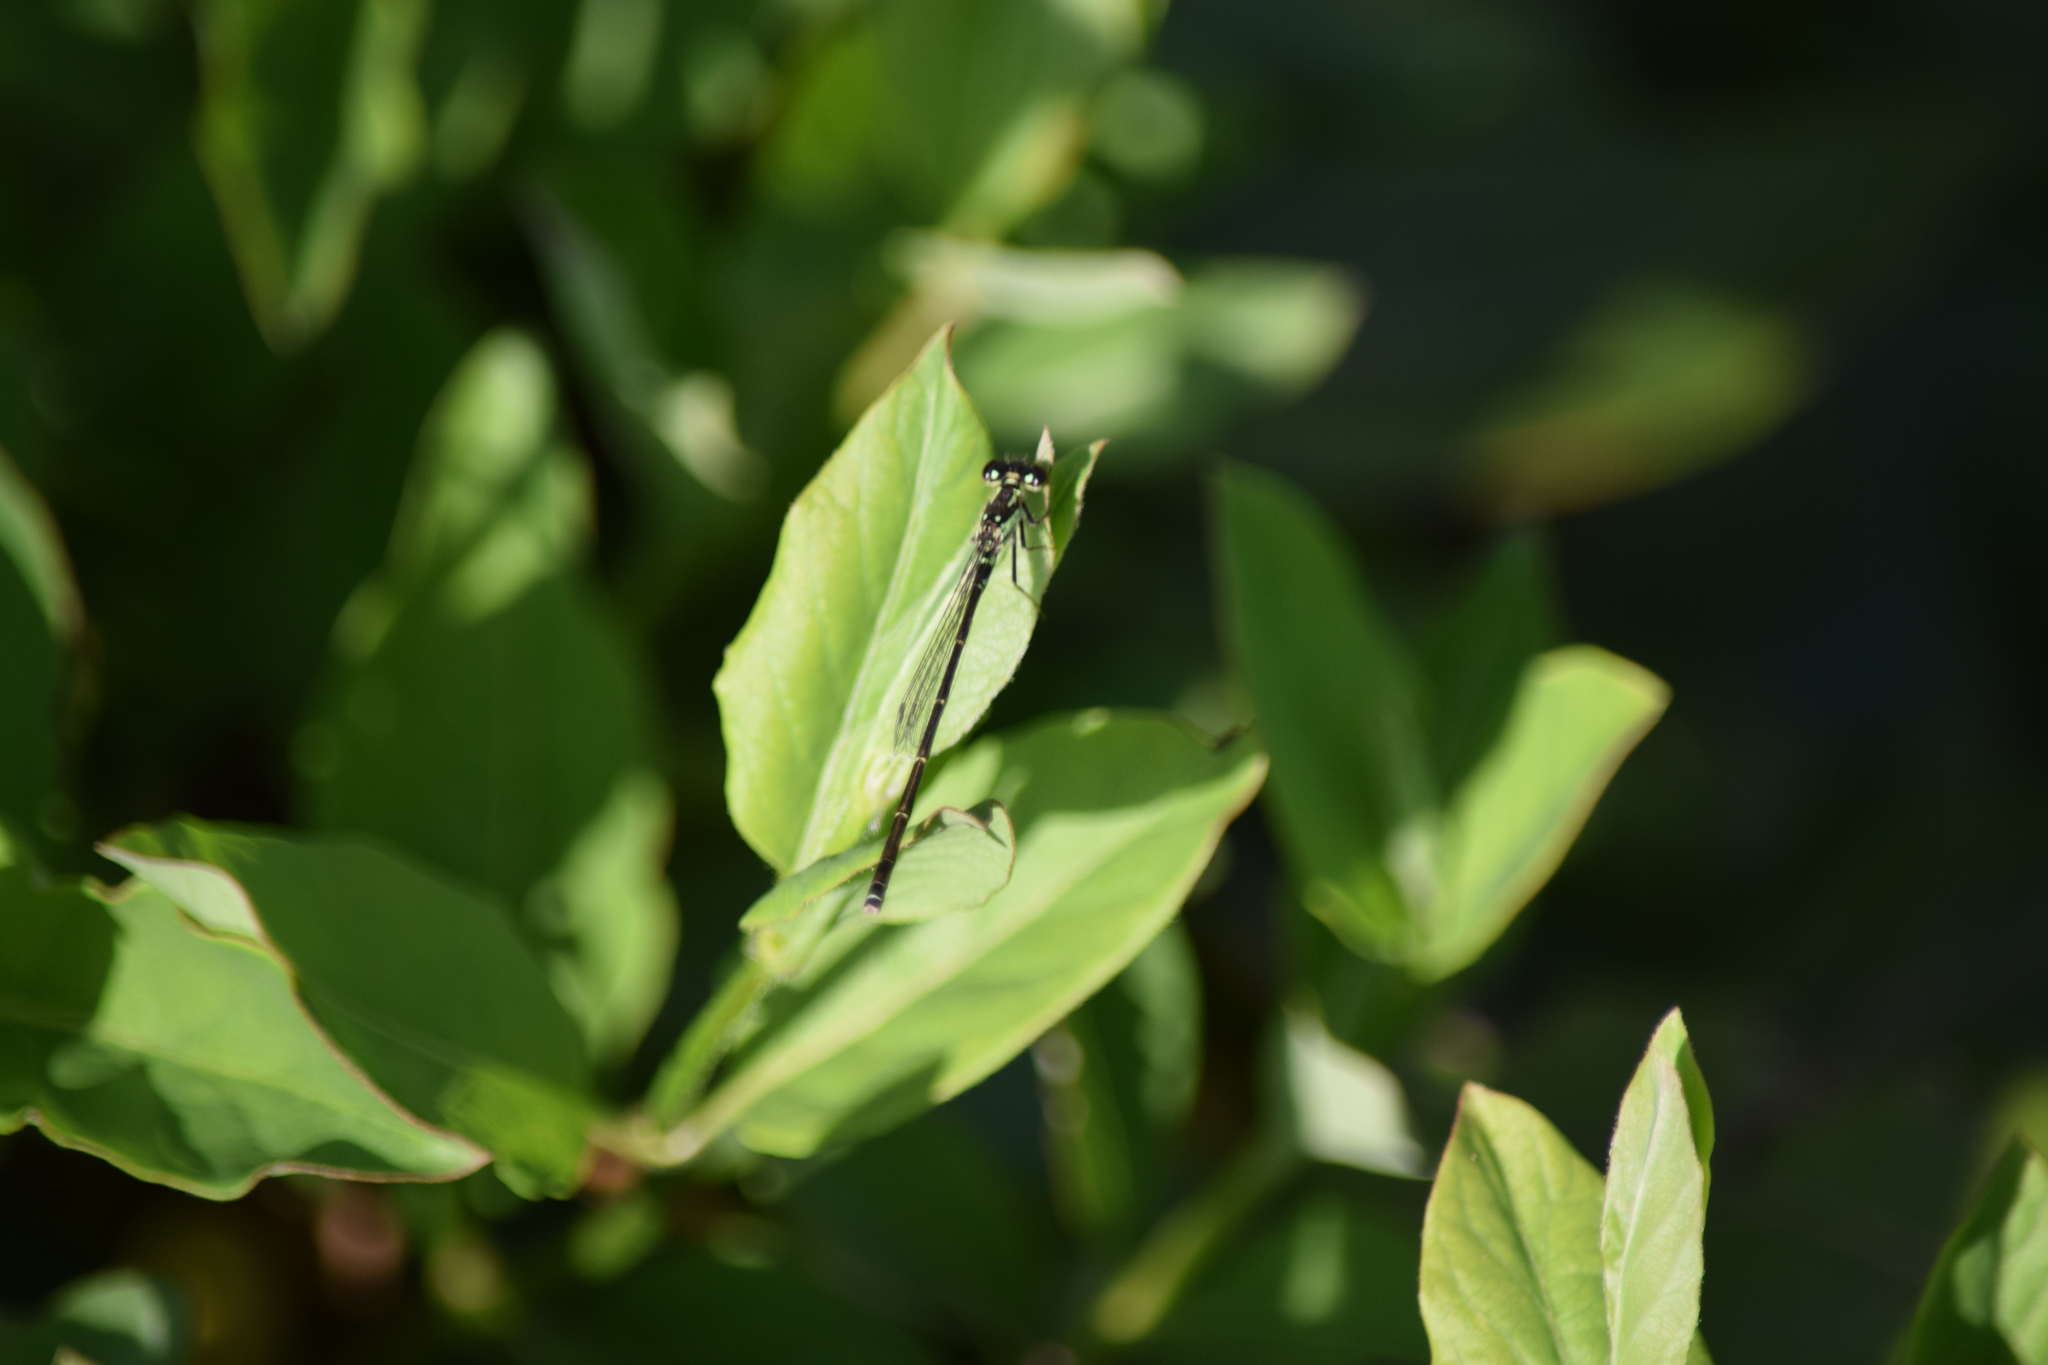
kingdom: Animalia
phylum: Arthropoda
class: Insecta
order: Odonata
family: Coenagrionidae
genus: Ischnura
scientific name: Ischnura posita
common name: Fragile forktail
